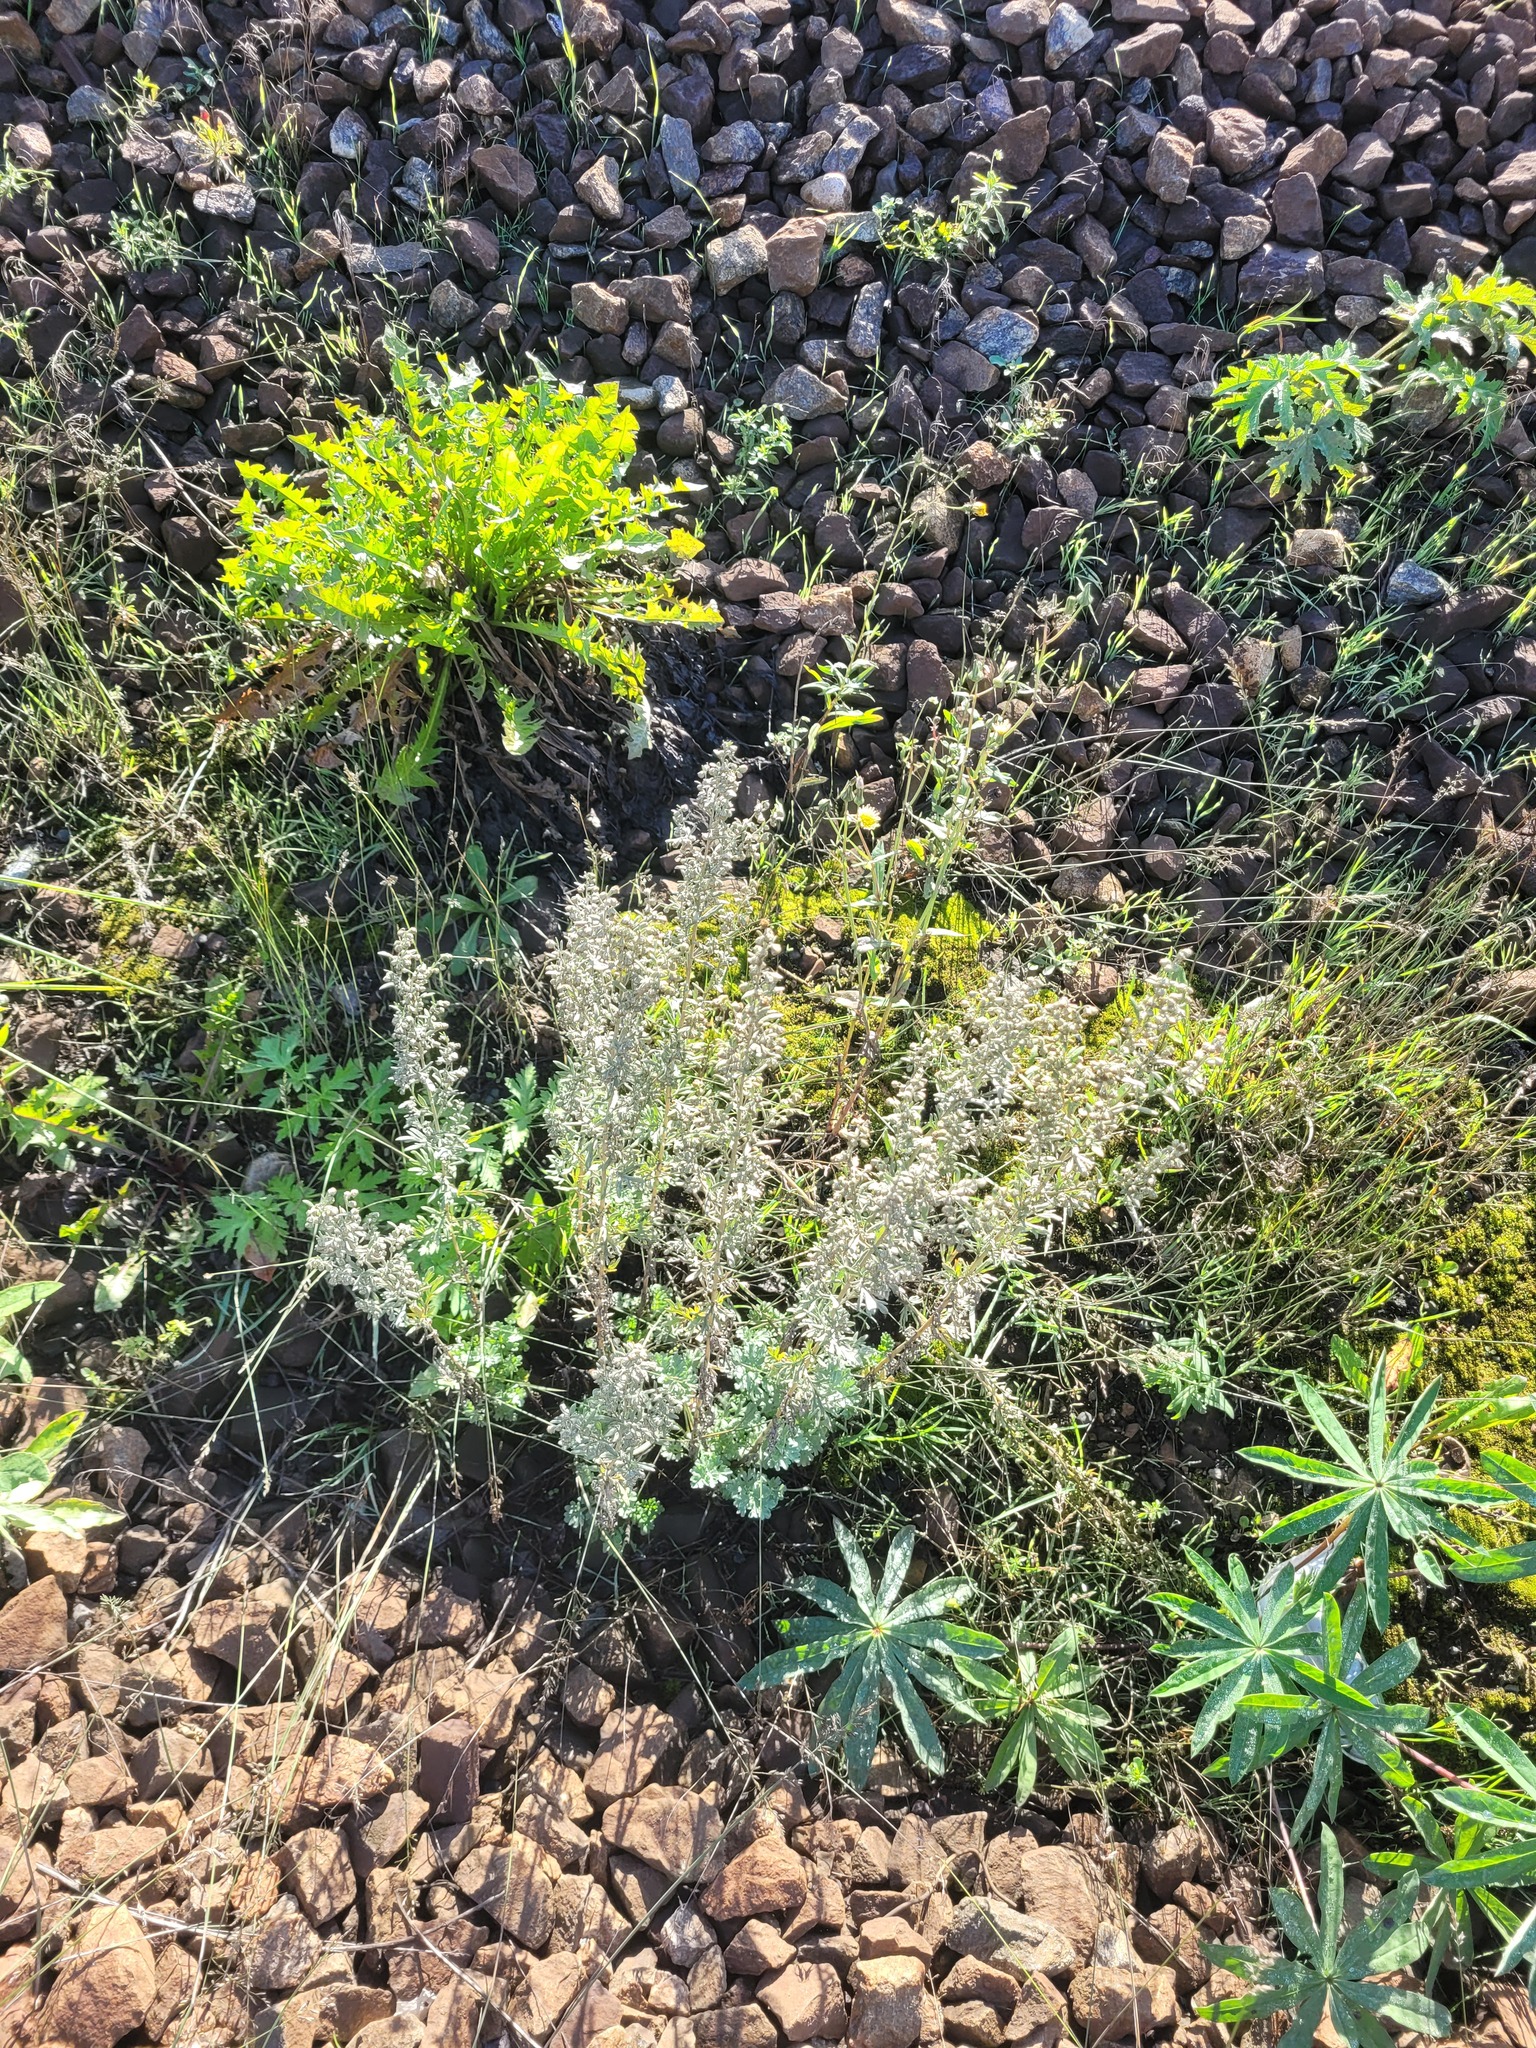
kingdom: Plantae
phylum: Tracheophyta
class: Magnoliopsida
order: Asterales
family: Asteraceae
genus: Artemisia
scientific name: Artemisia absinthium
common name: Wormwood
